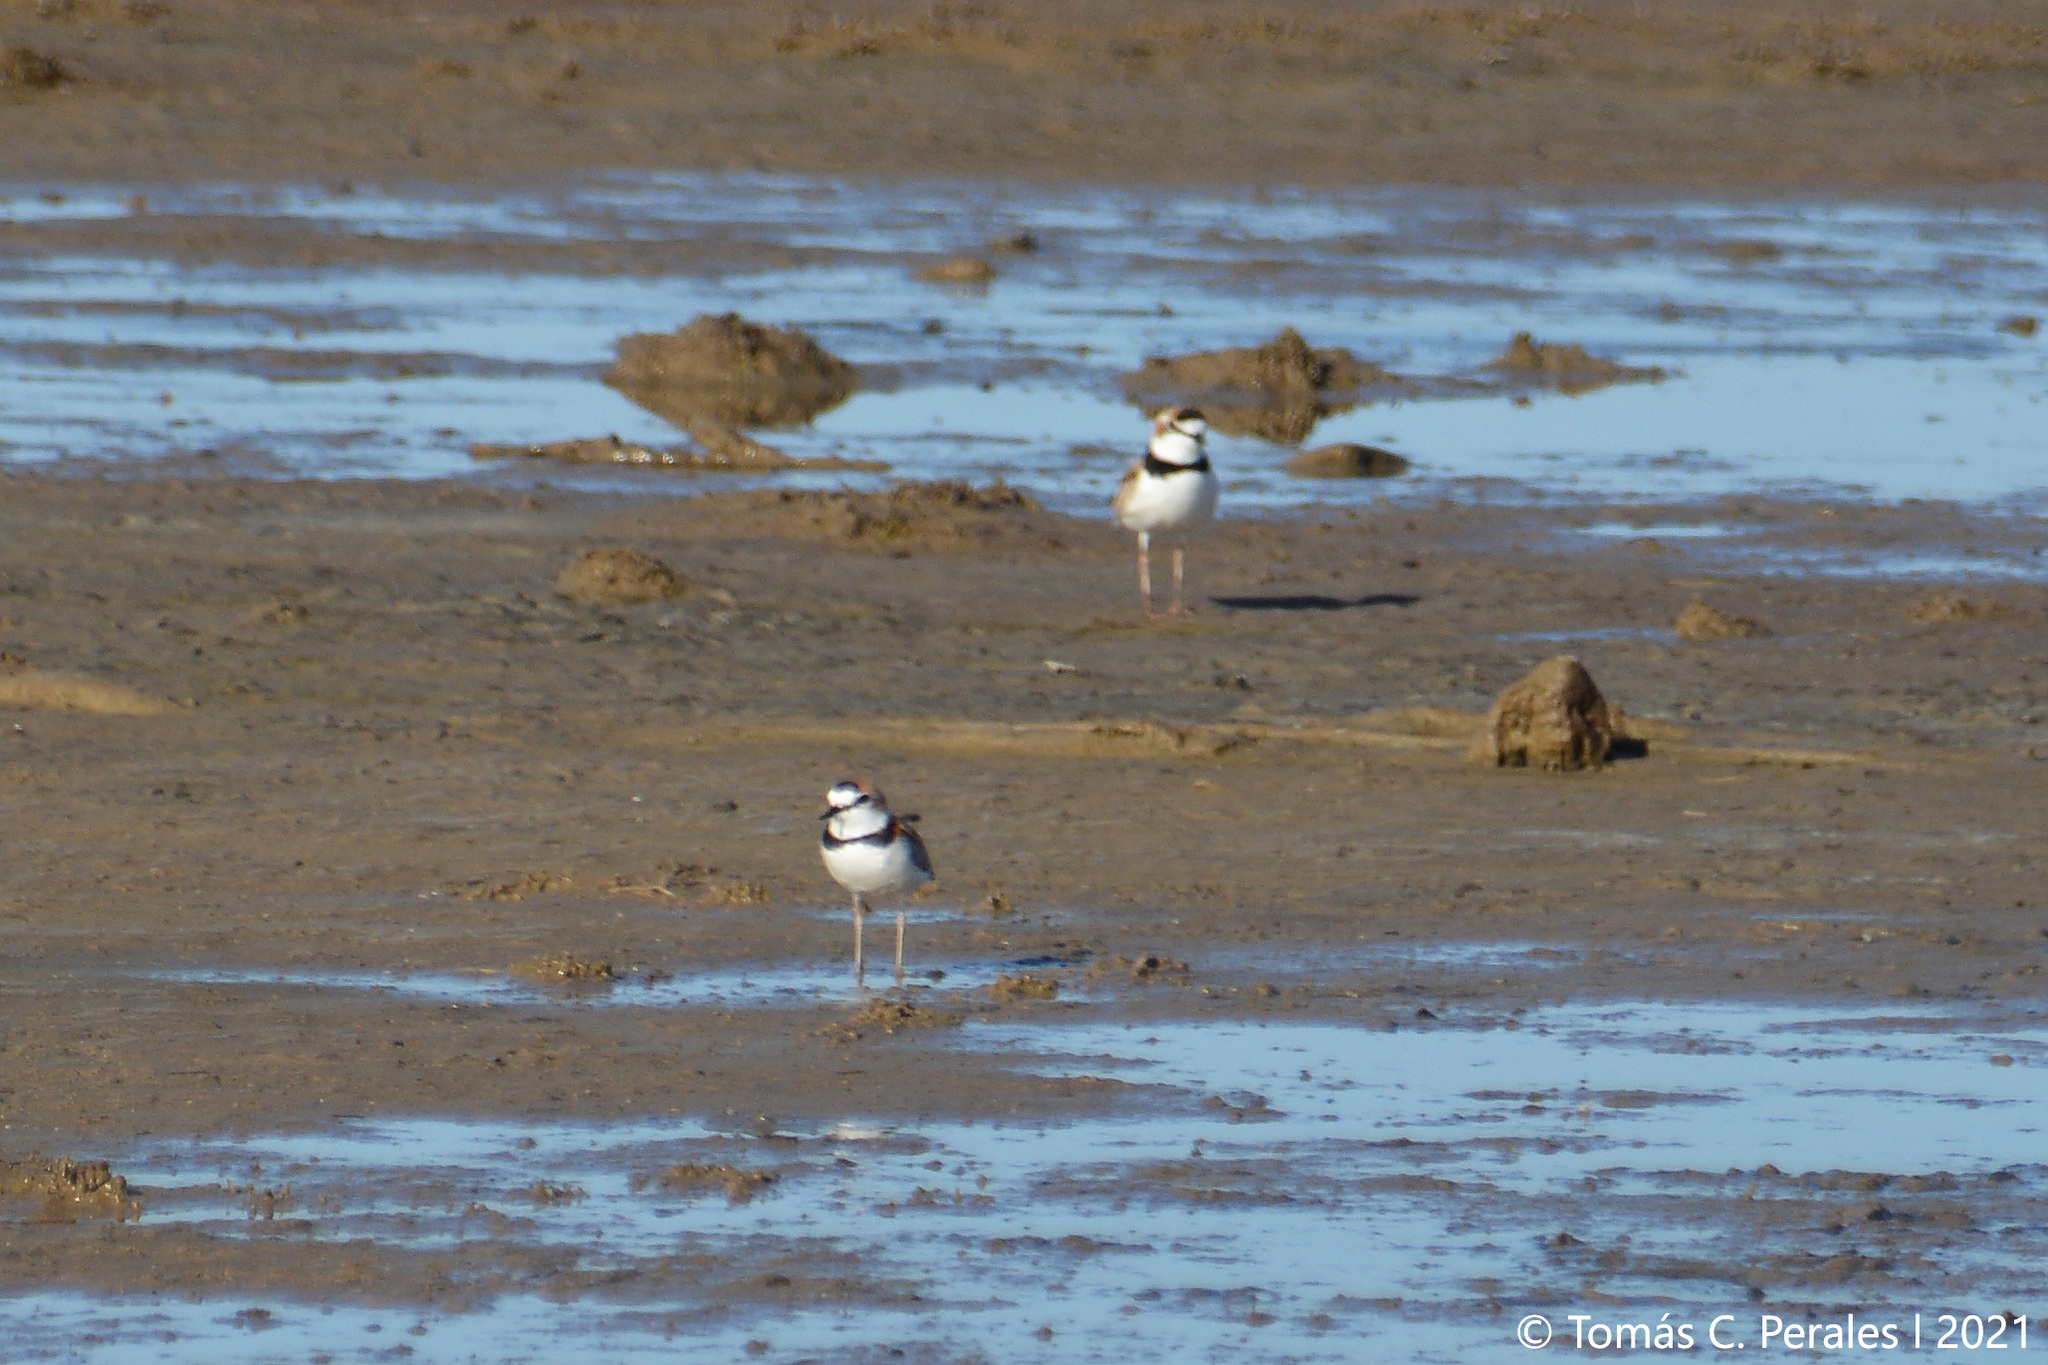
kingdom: Animalia
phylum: Chordata
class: Aves
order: Charadriiformes
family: Charadriidae
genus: Anarhynchus
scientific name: Anarhynchus
